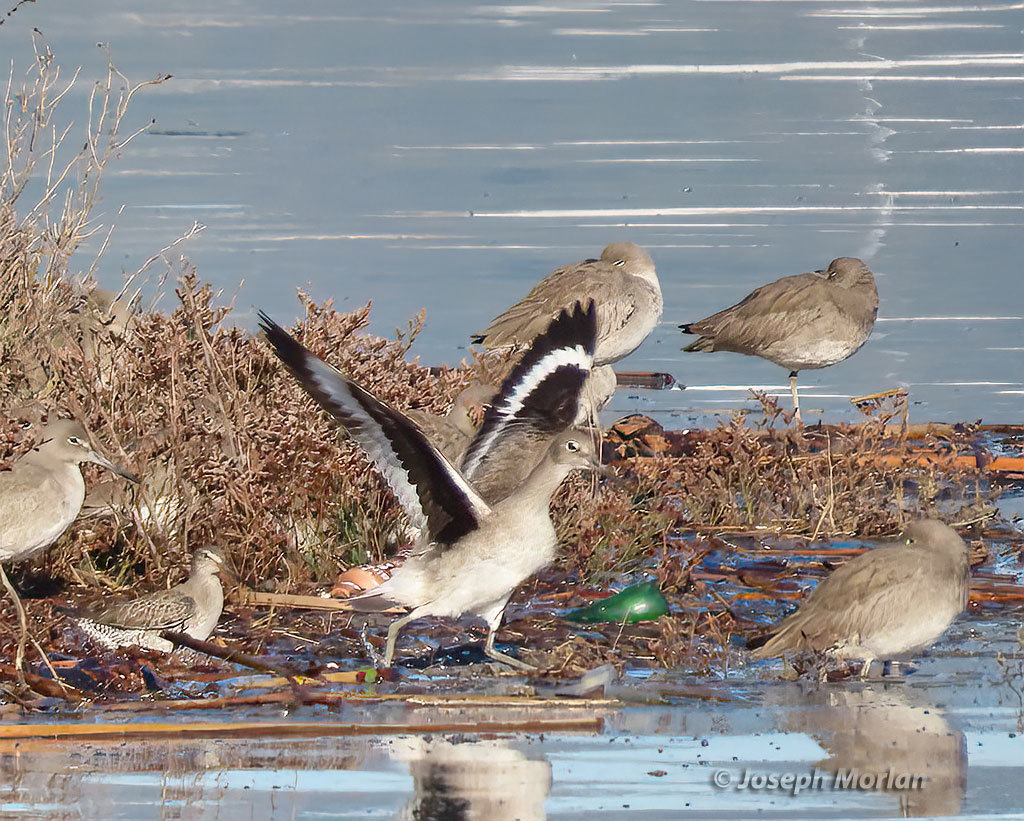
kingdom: Animalia
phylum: Chordata
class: Aves
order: Charadriiformes
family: Scolopacidae
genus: Tringa
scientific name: Tringa semipalmata
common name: Willet
